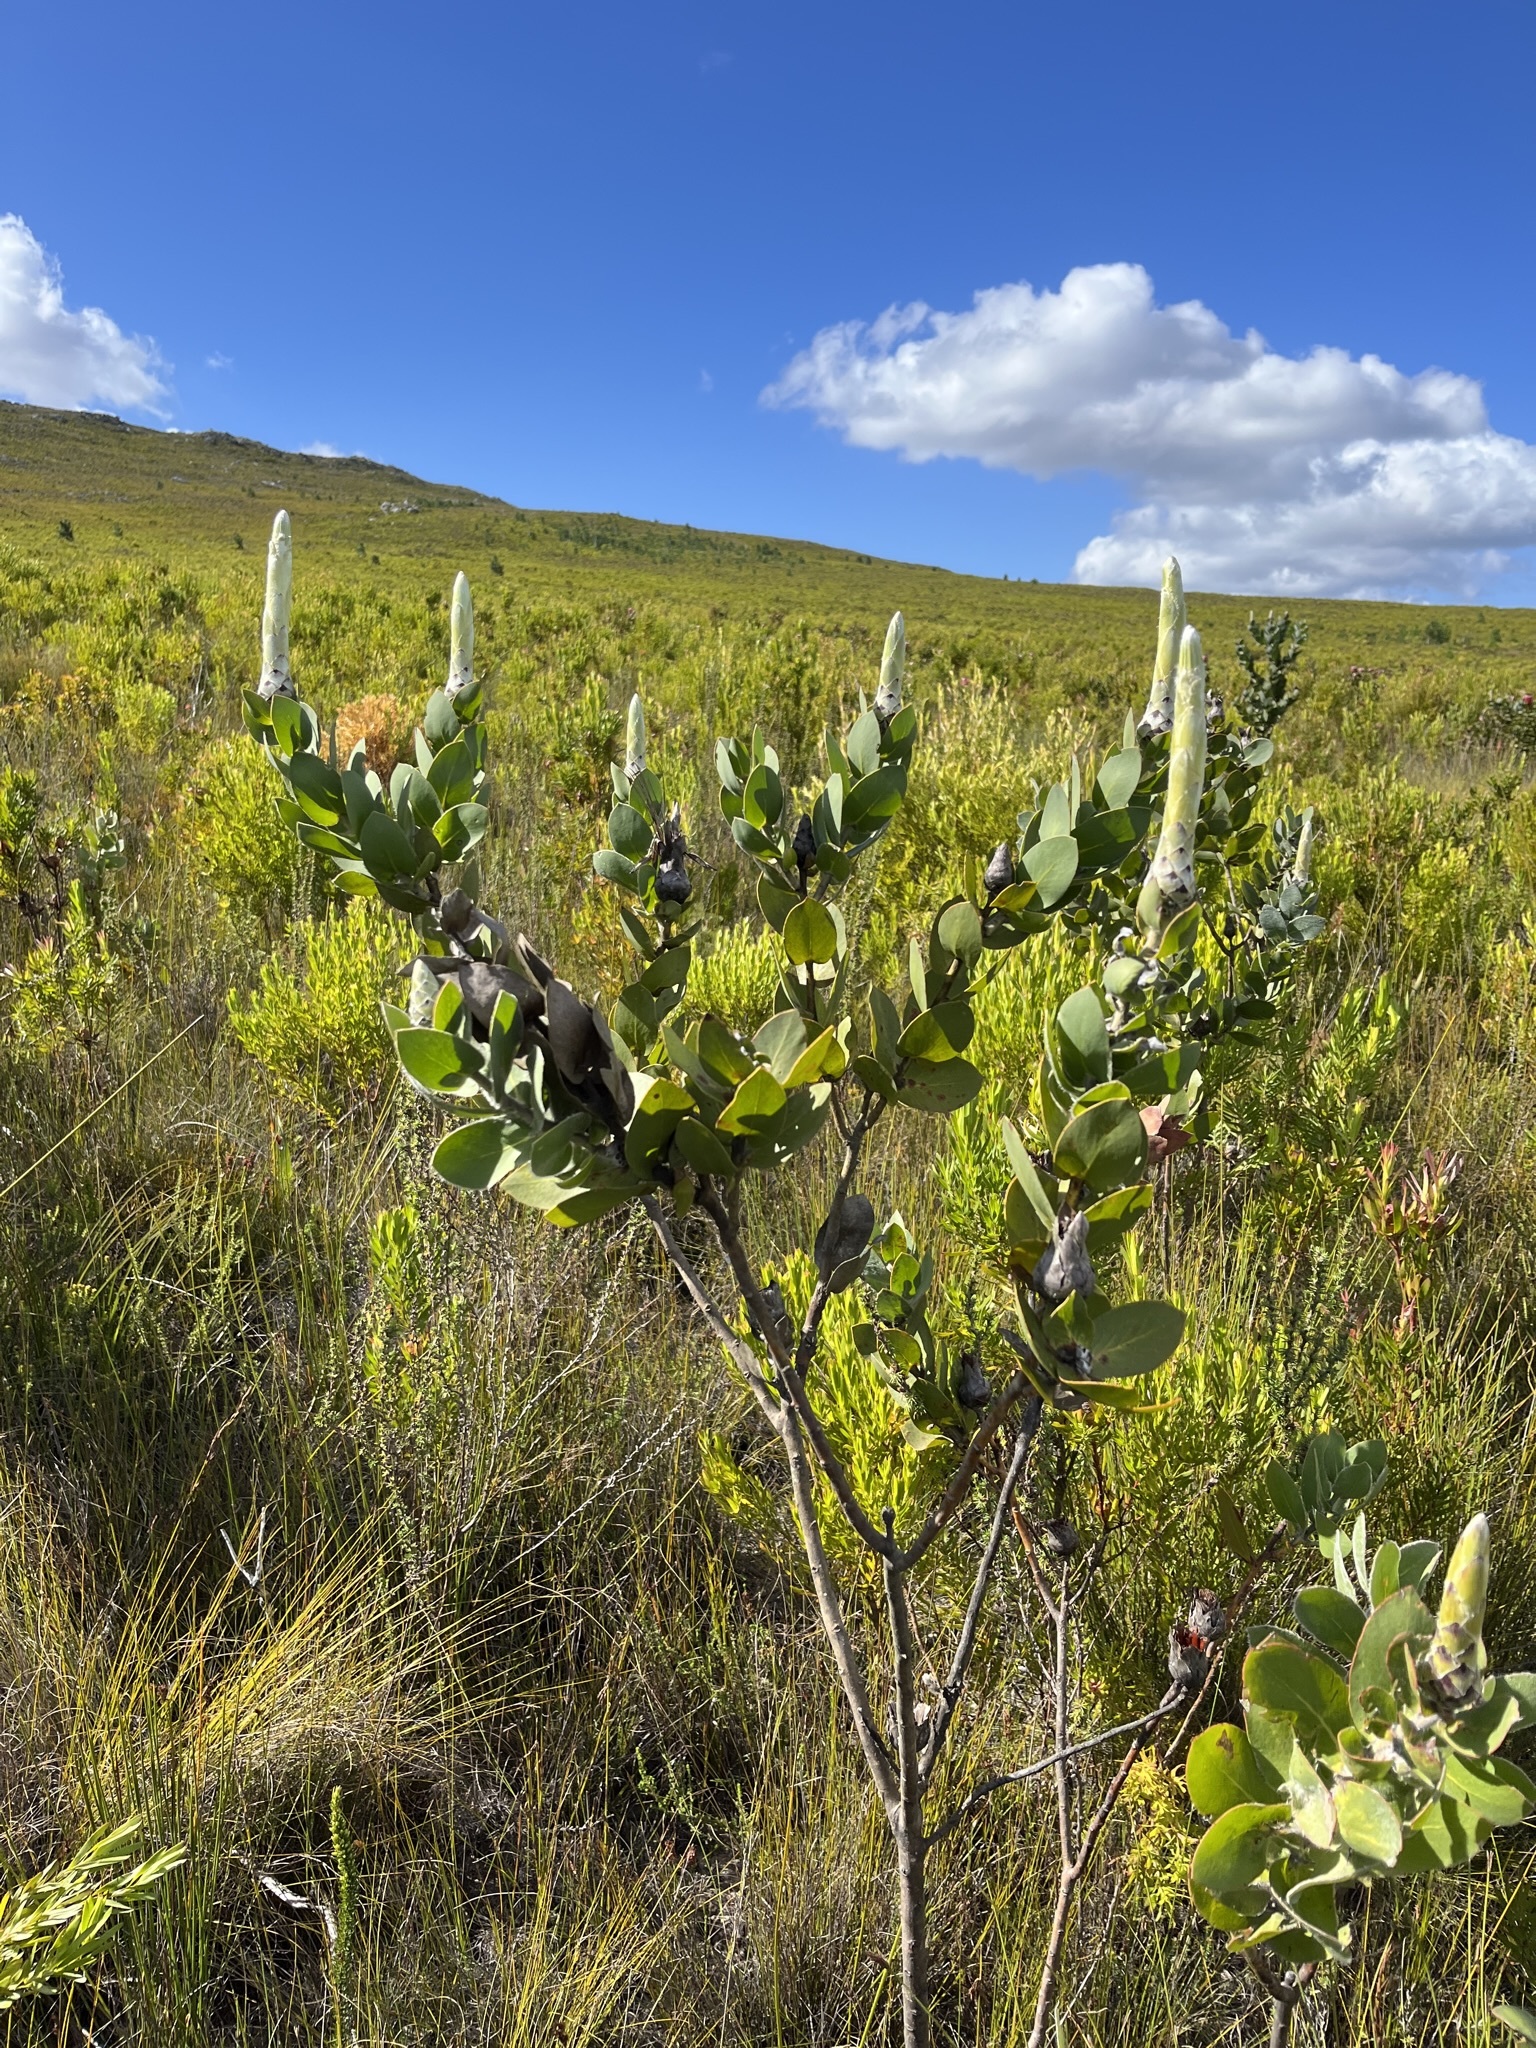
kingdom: Plantae
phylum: Tracheophyta
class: Magnoliopsida
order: Proteales
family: Proteaceae
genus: Protea
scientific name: Protea aurea
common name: Shuttlecock sugarbush
